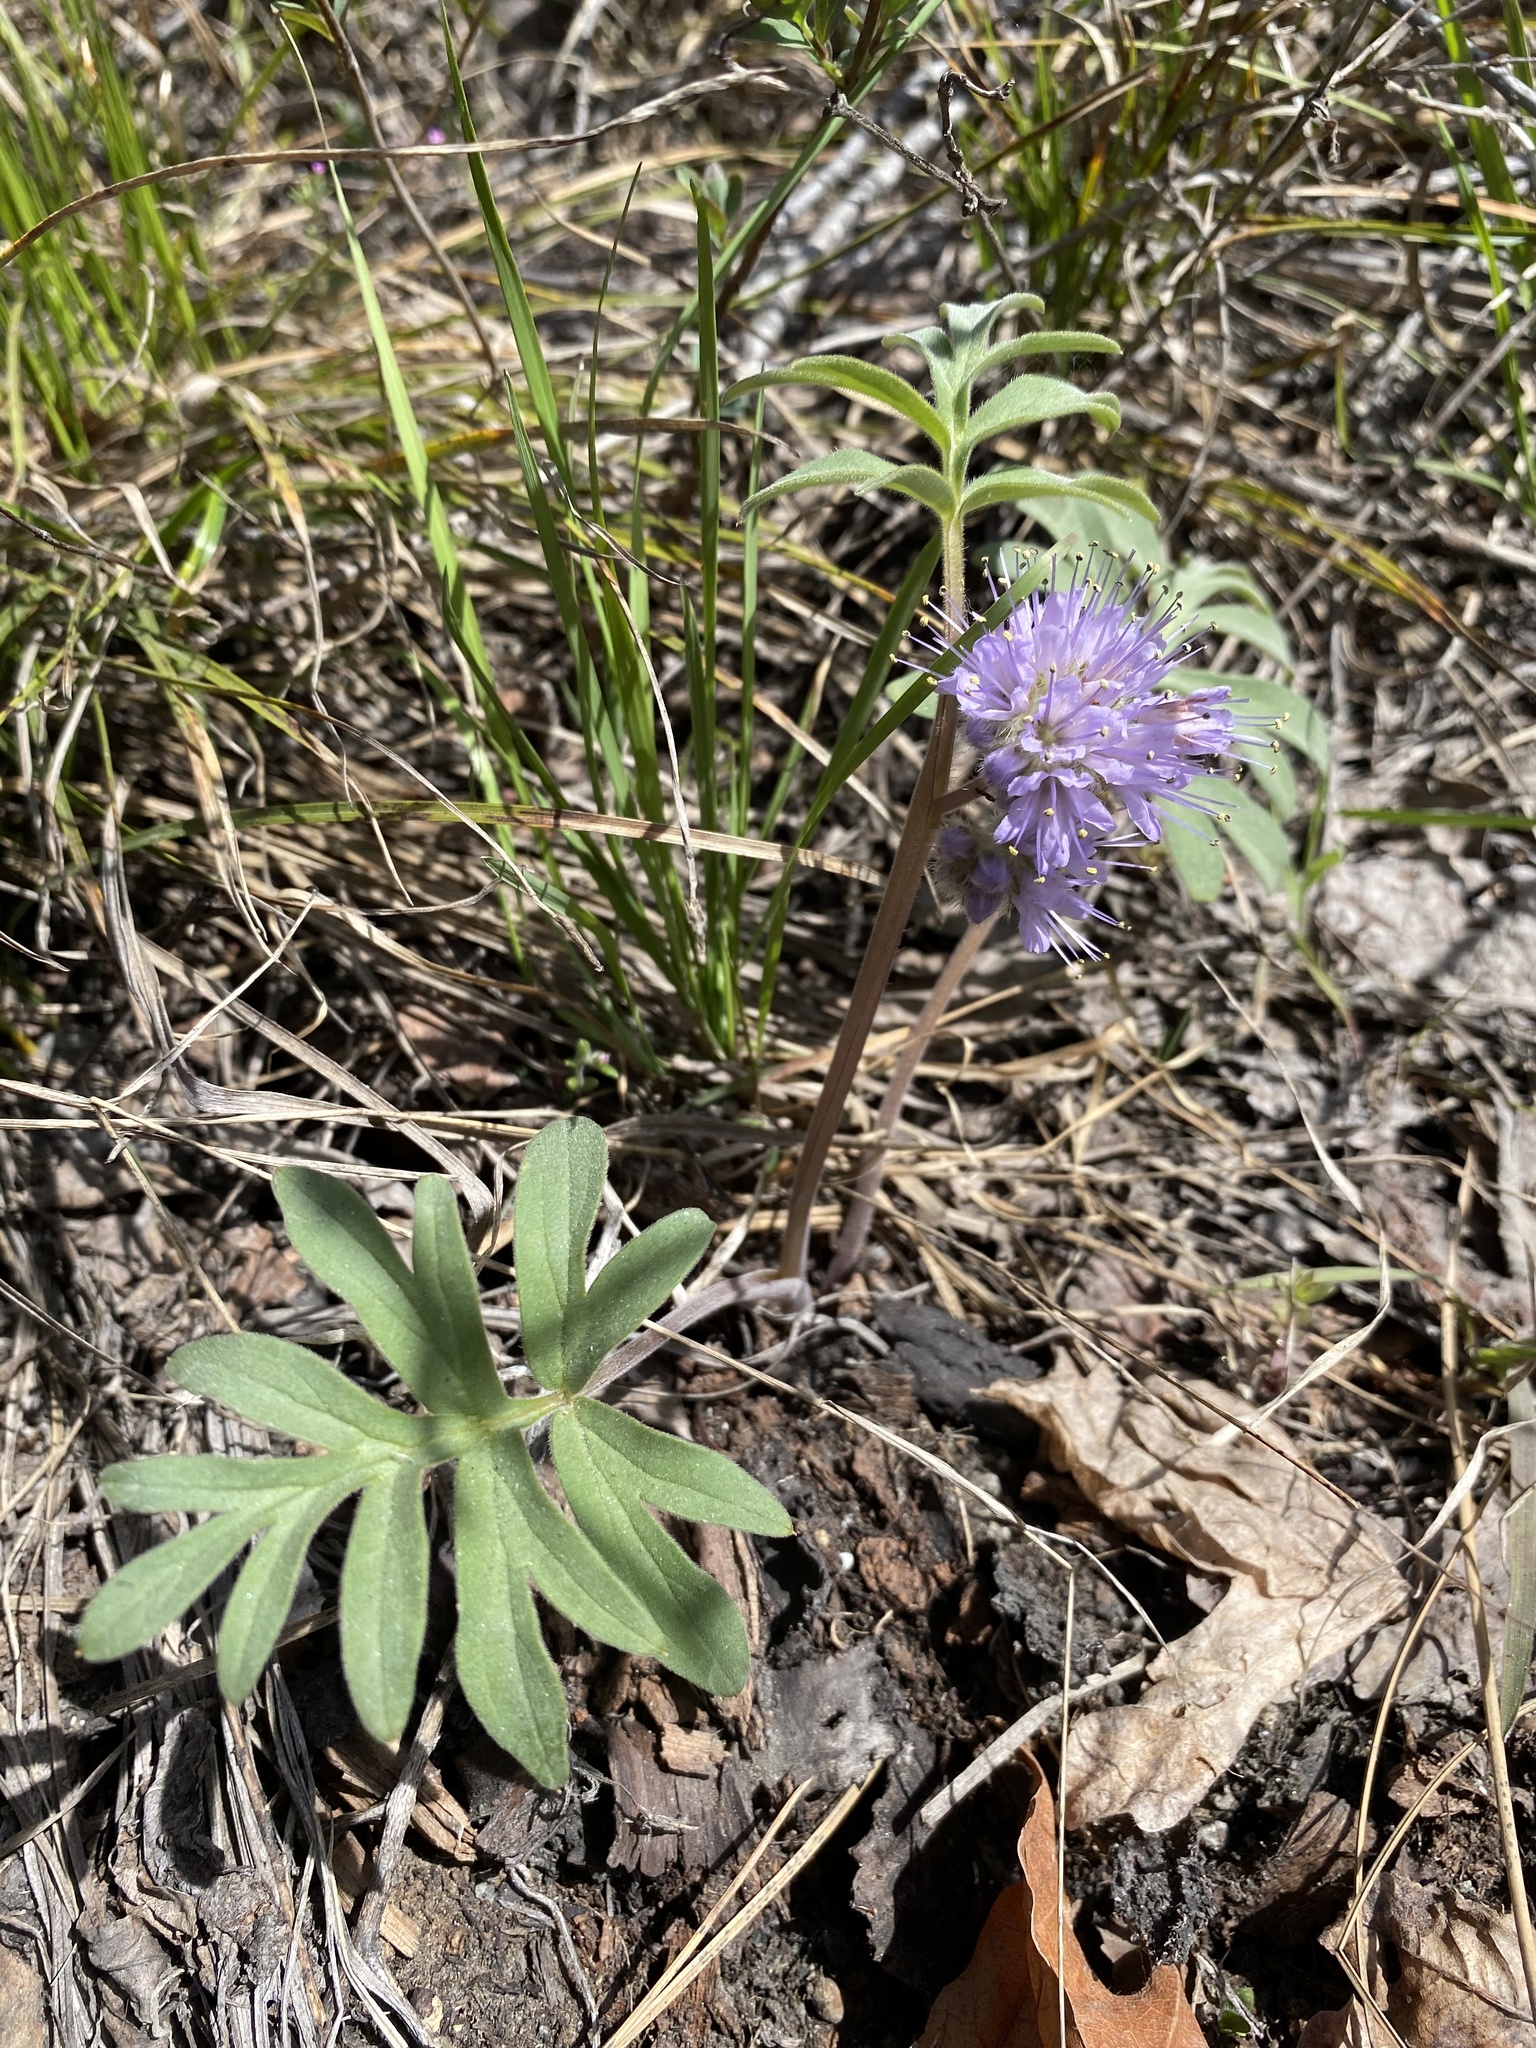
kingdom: Plantae
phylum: Tracheophyta
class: Magnoliopsida
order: Boraginales
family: Hydrophyllaceae
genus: Hydrophyllum
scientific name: Hydrophyllum capitatum
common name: Woollen-breeches
